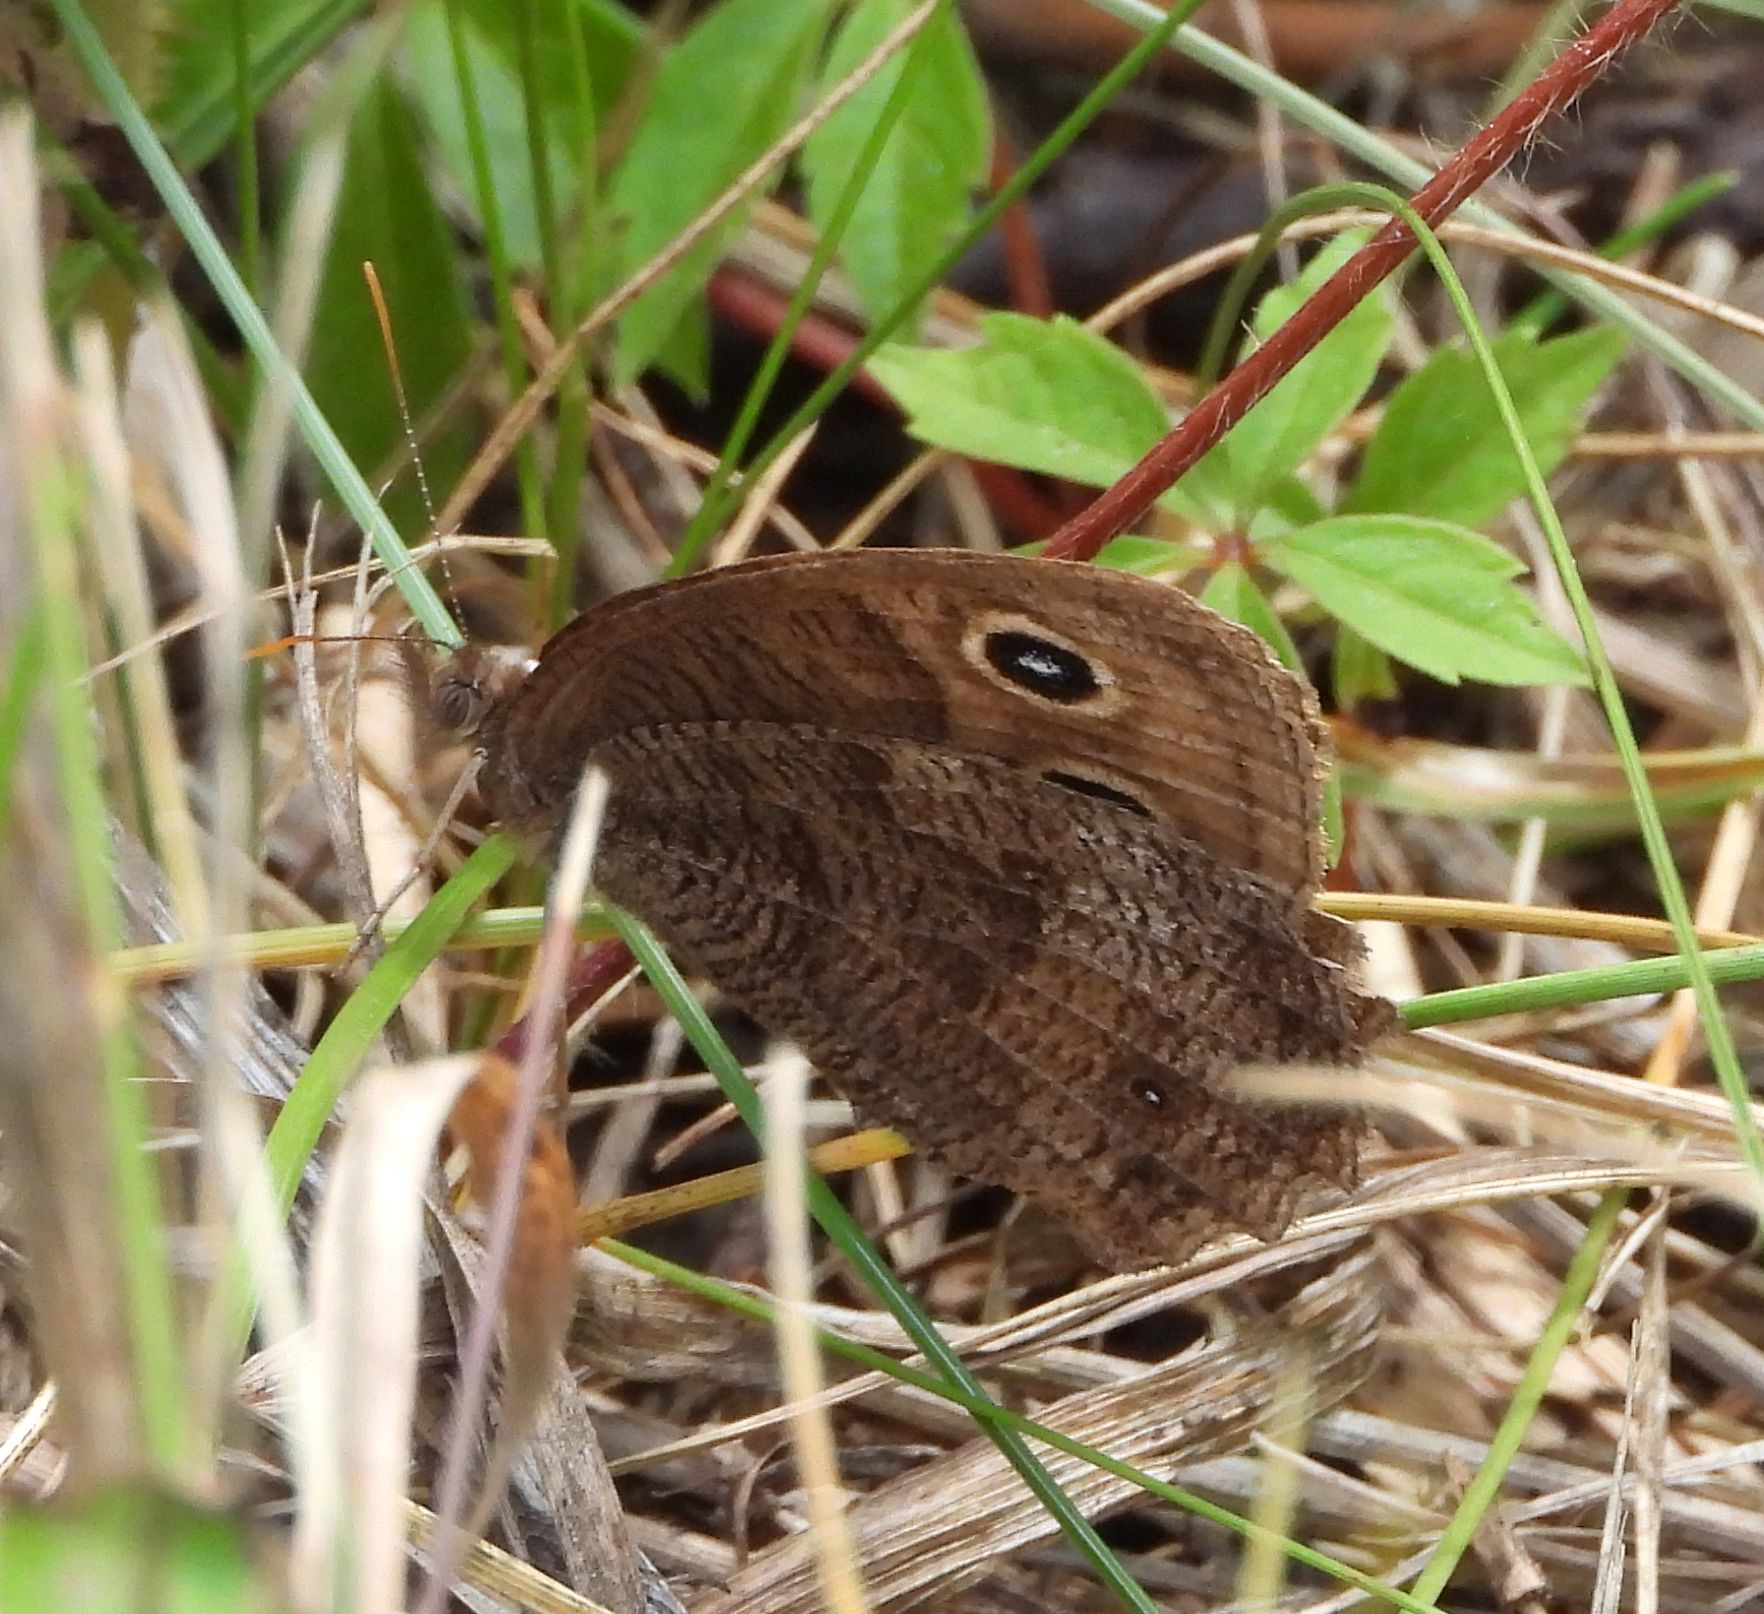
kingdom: Animalia
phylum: Arthropoda
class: Insecta
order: Lepidoptera
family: Nymphalidae
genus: Cercyonis
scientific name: Cercyonis pegala
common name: Common wood-nymph
